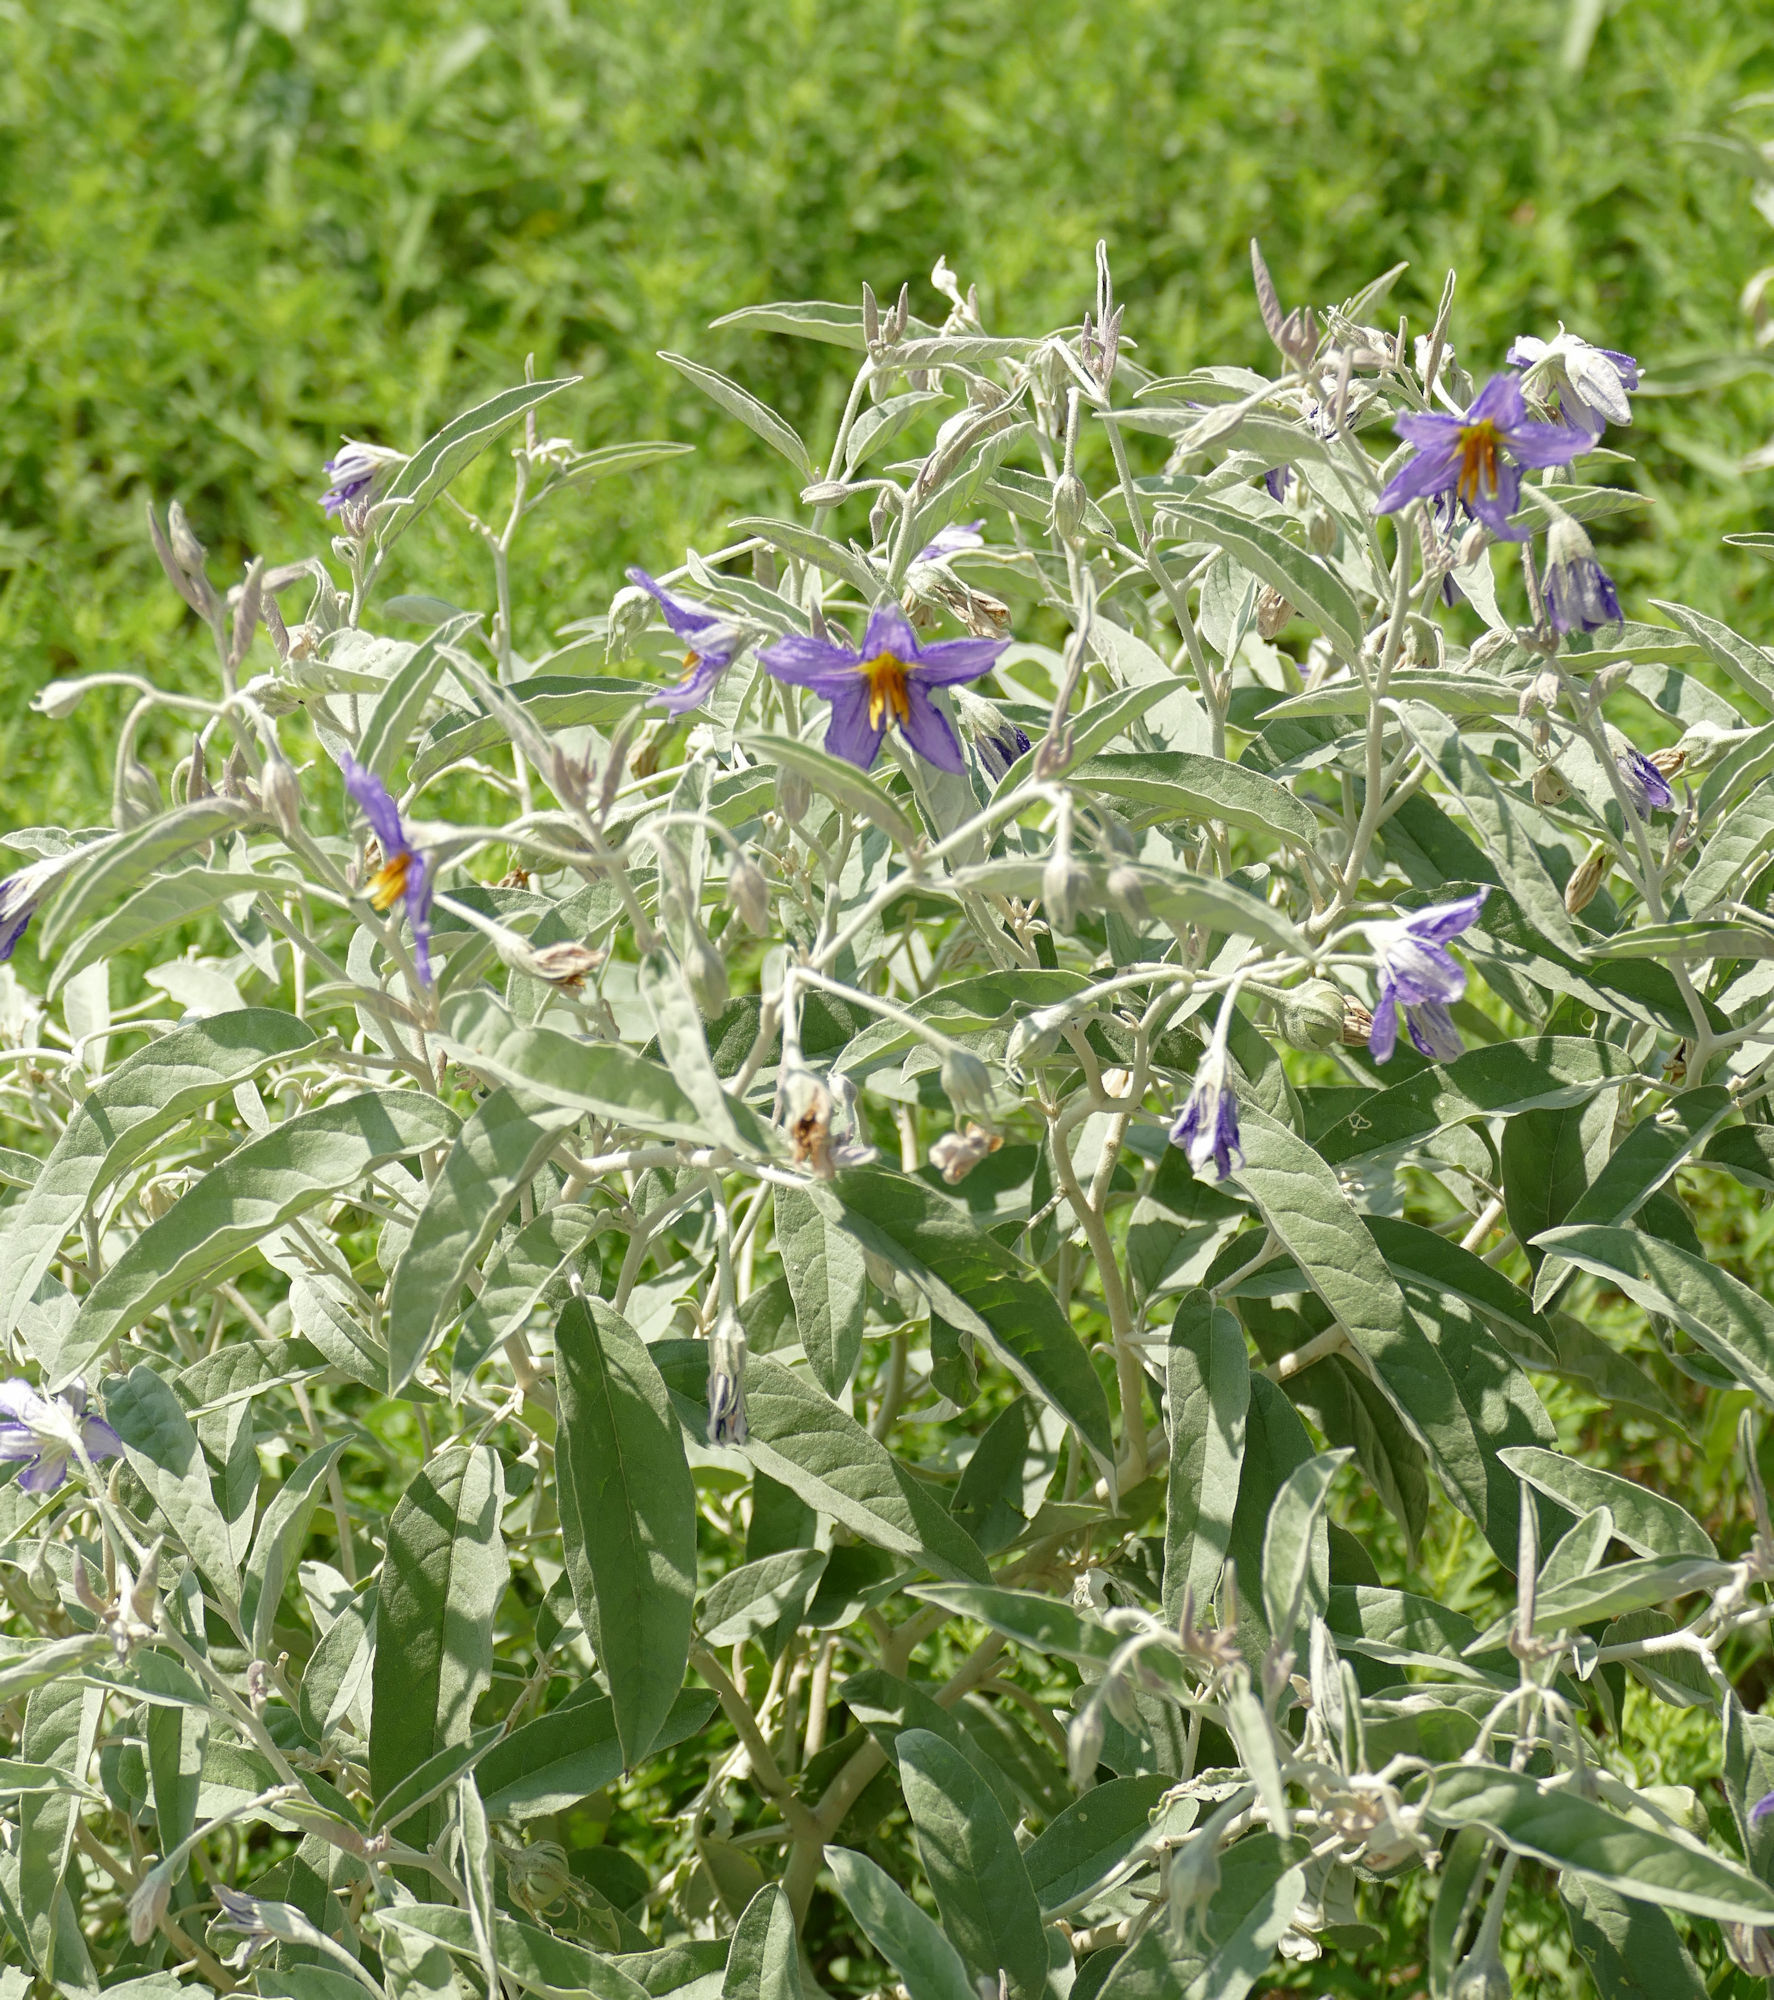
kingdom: Plantae
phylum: Tracheophyta
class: Magnoliopsida
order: Solanales
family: Solanaceae
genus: Solanum
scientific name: Solanum elaeagnifolium
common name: Silverleaf nightshade
